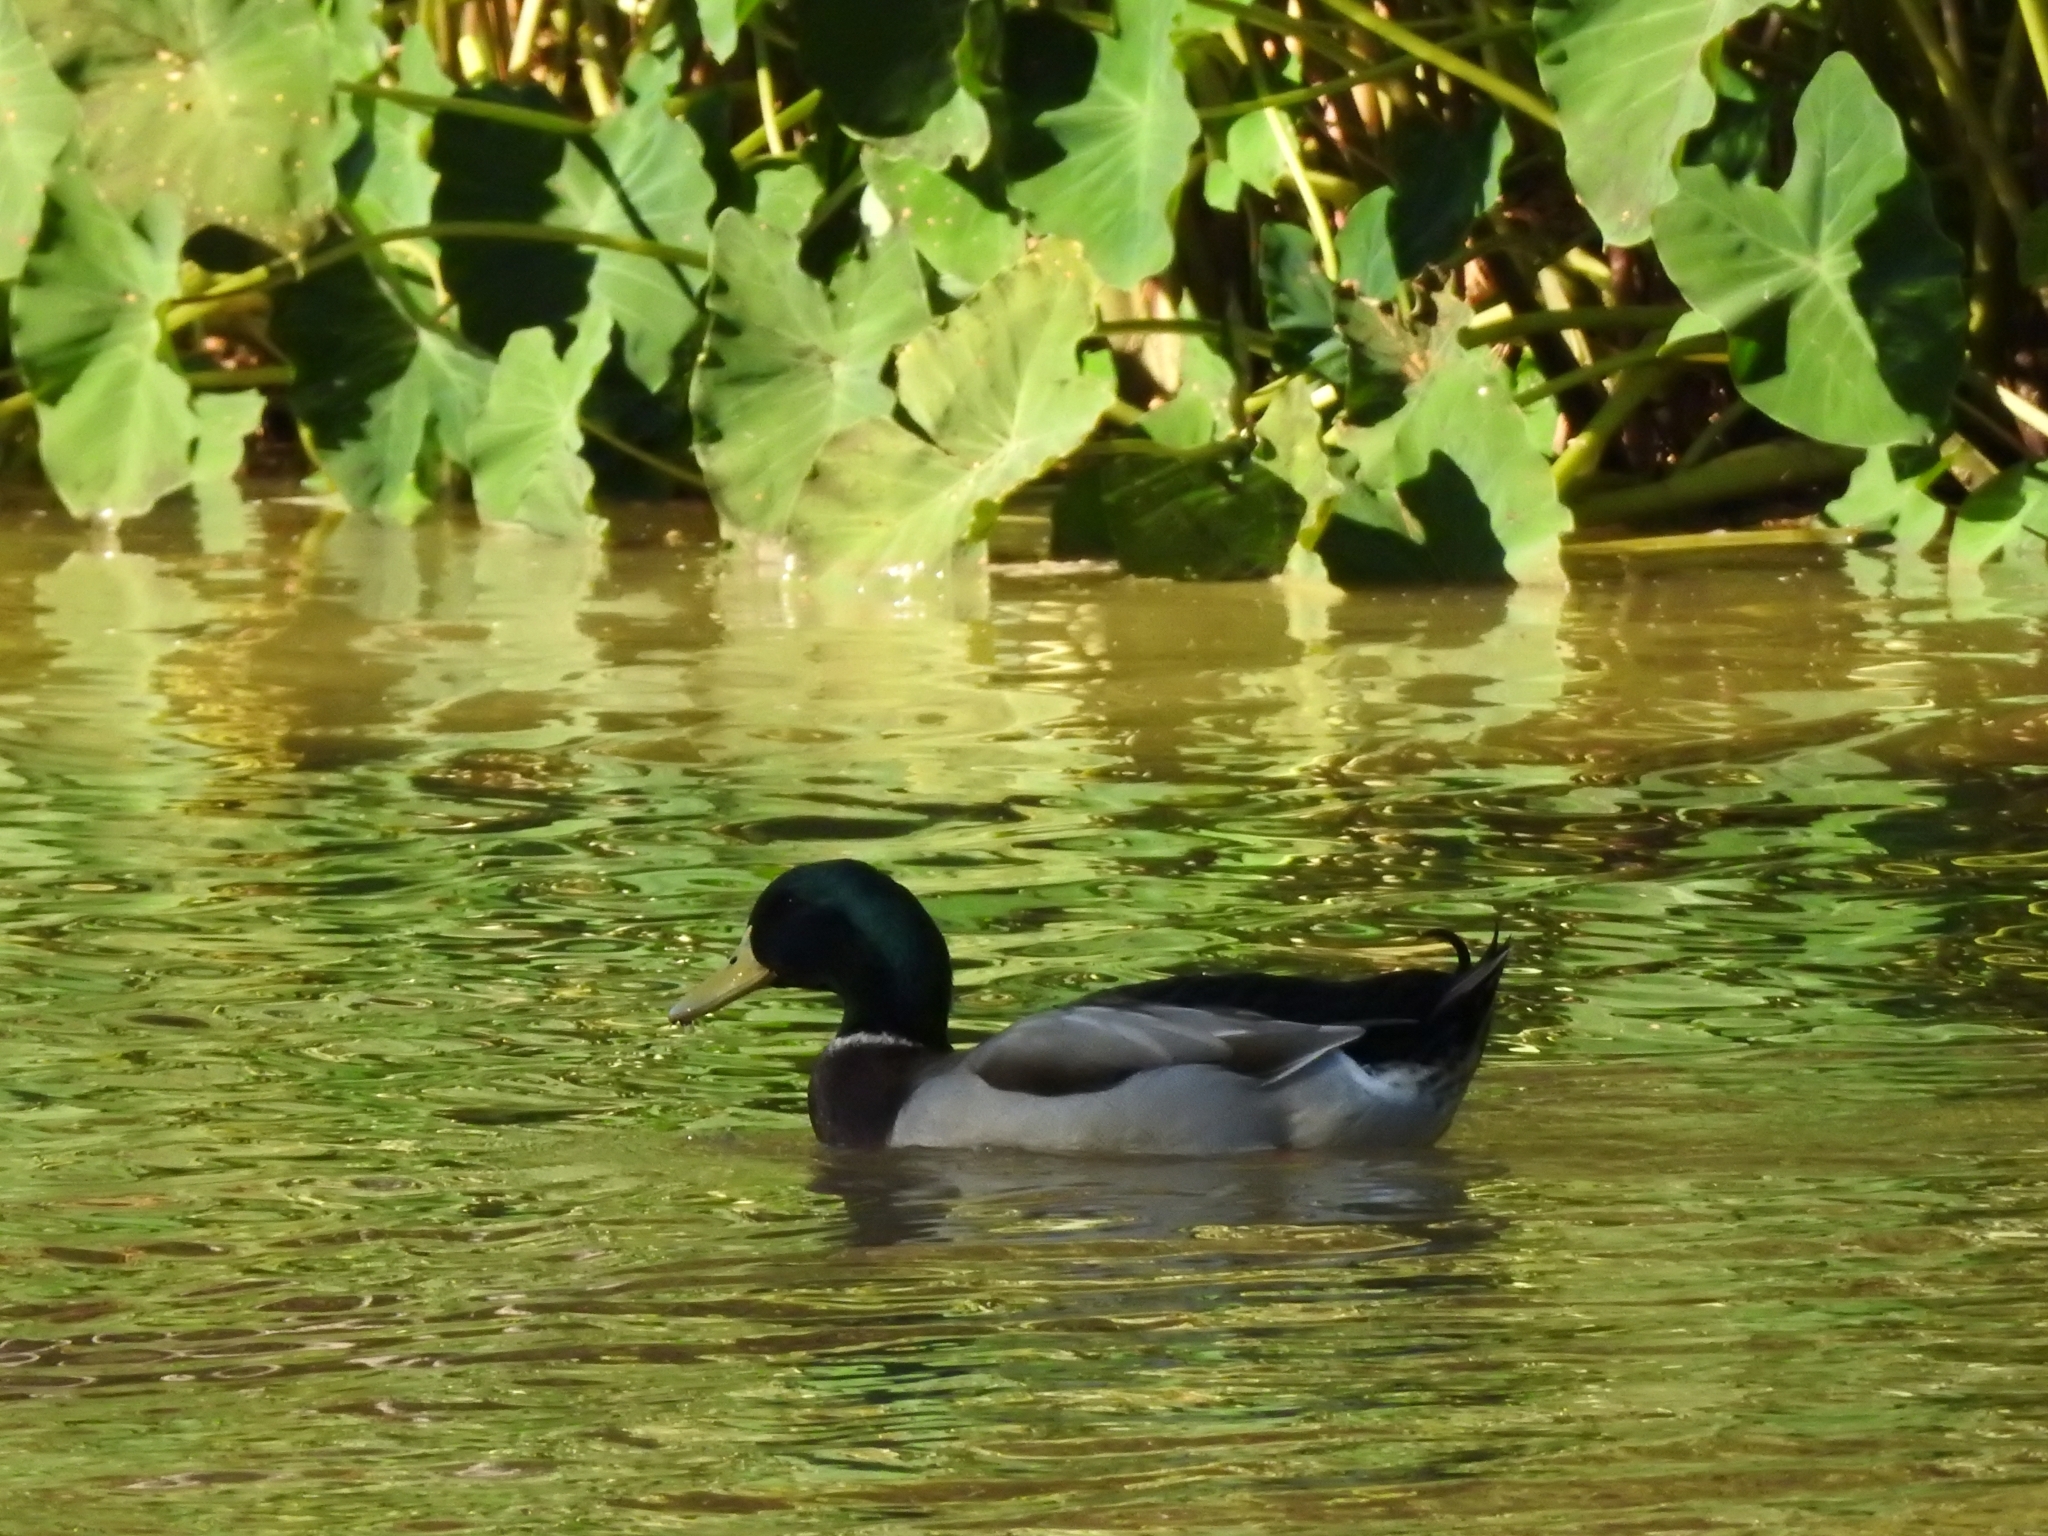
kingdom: Animalia
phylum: Chordata
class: Aves
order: Anseriformes
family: Anatidae
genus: Anas
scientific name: Anas platyrhynchos
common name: Mallard
